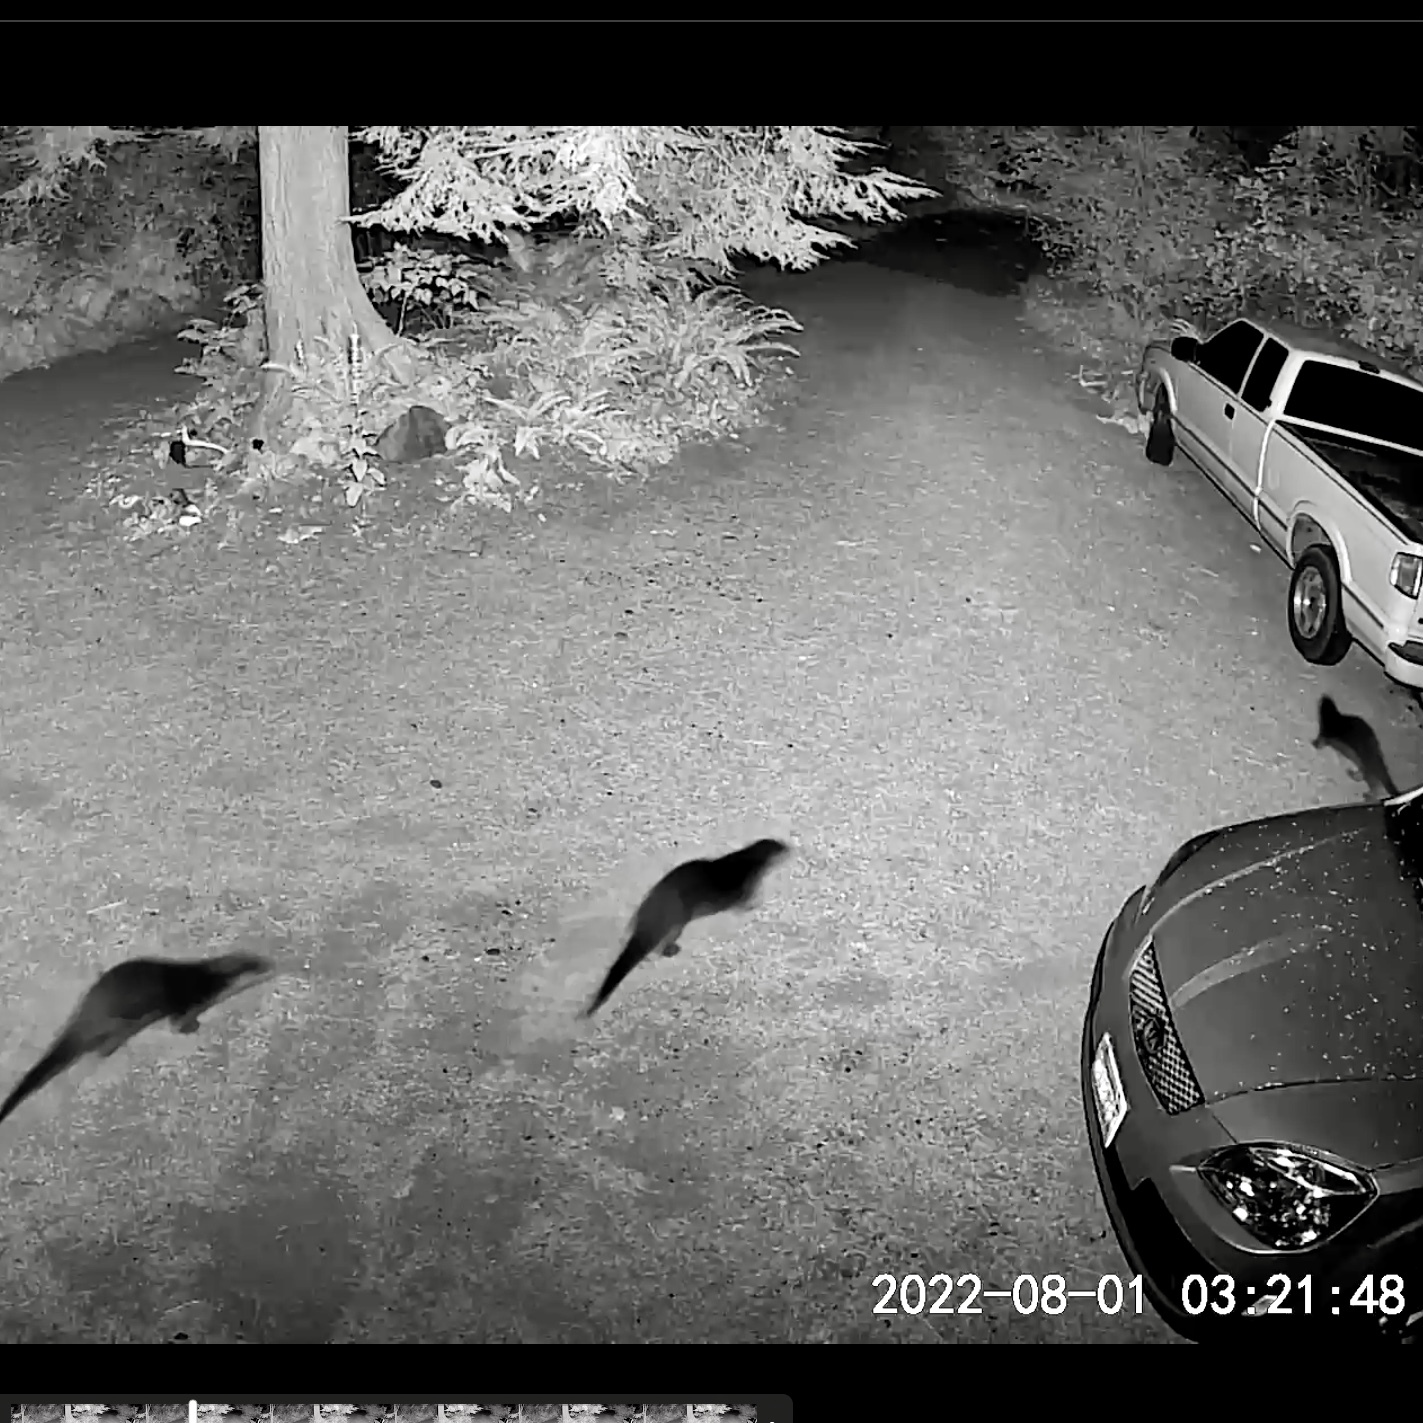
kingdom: Animalia
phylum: Chordata
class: Mammalia
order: Carnivora
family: Mustelidae
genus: Lontra
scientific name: Lontra canadensis
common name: North american river otter
